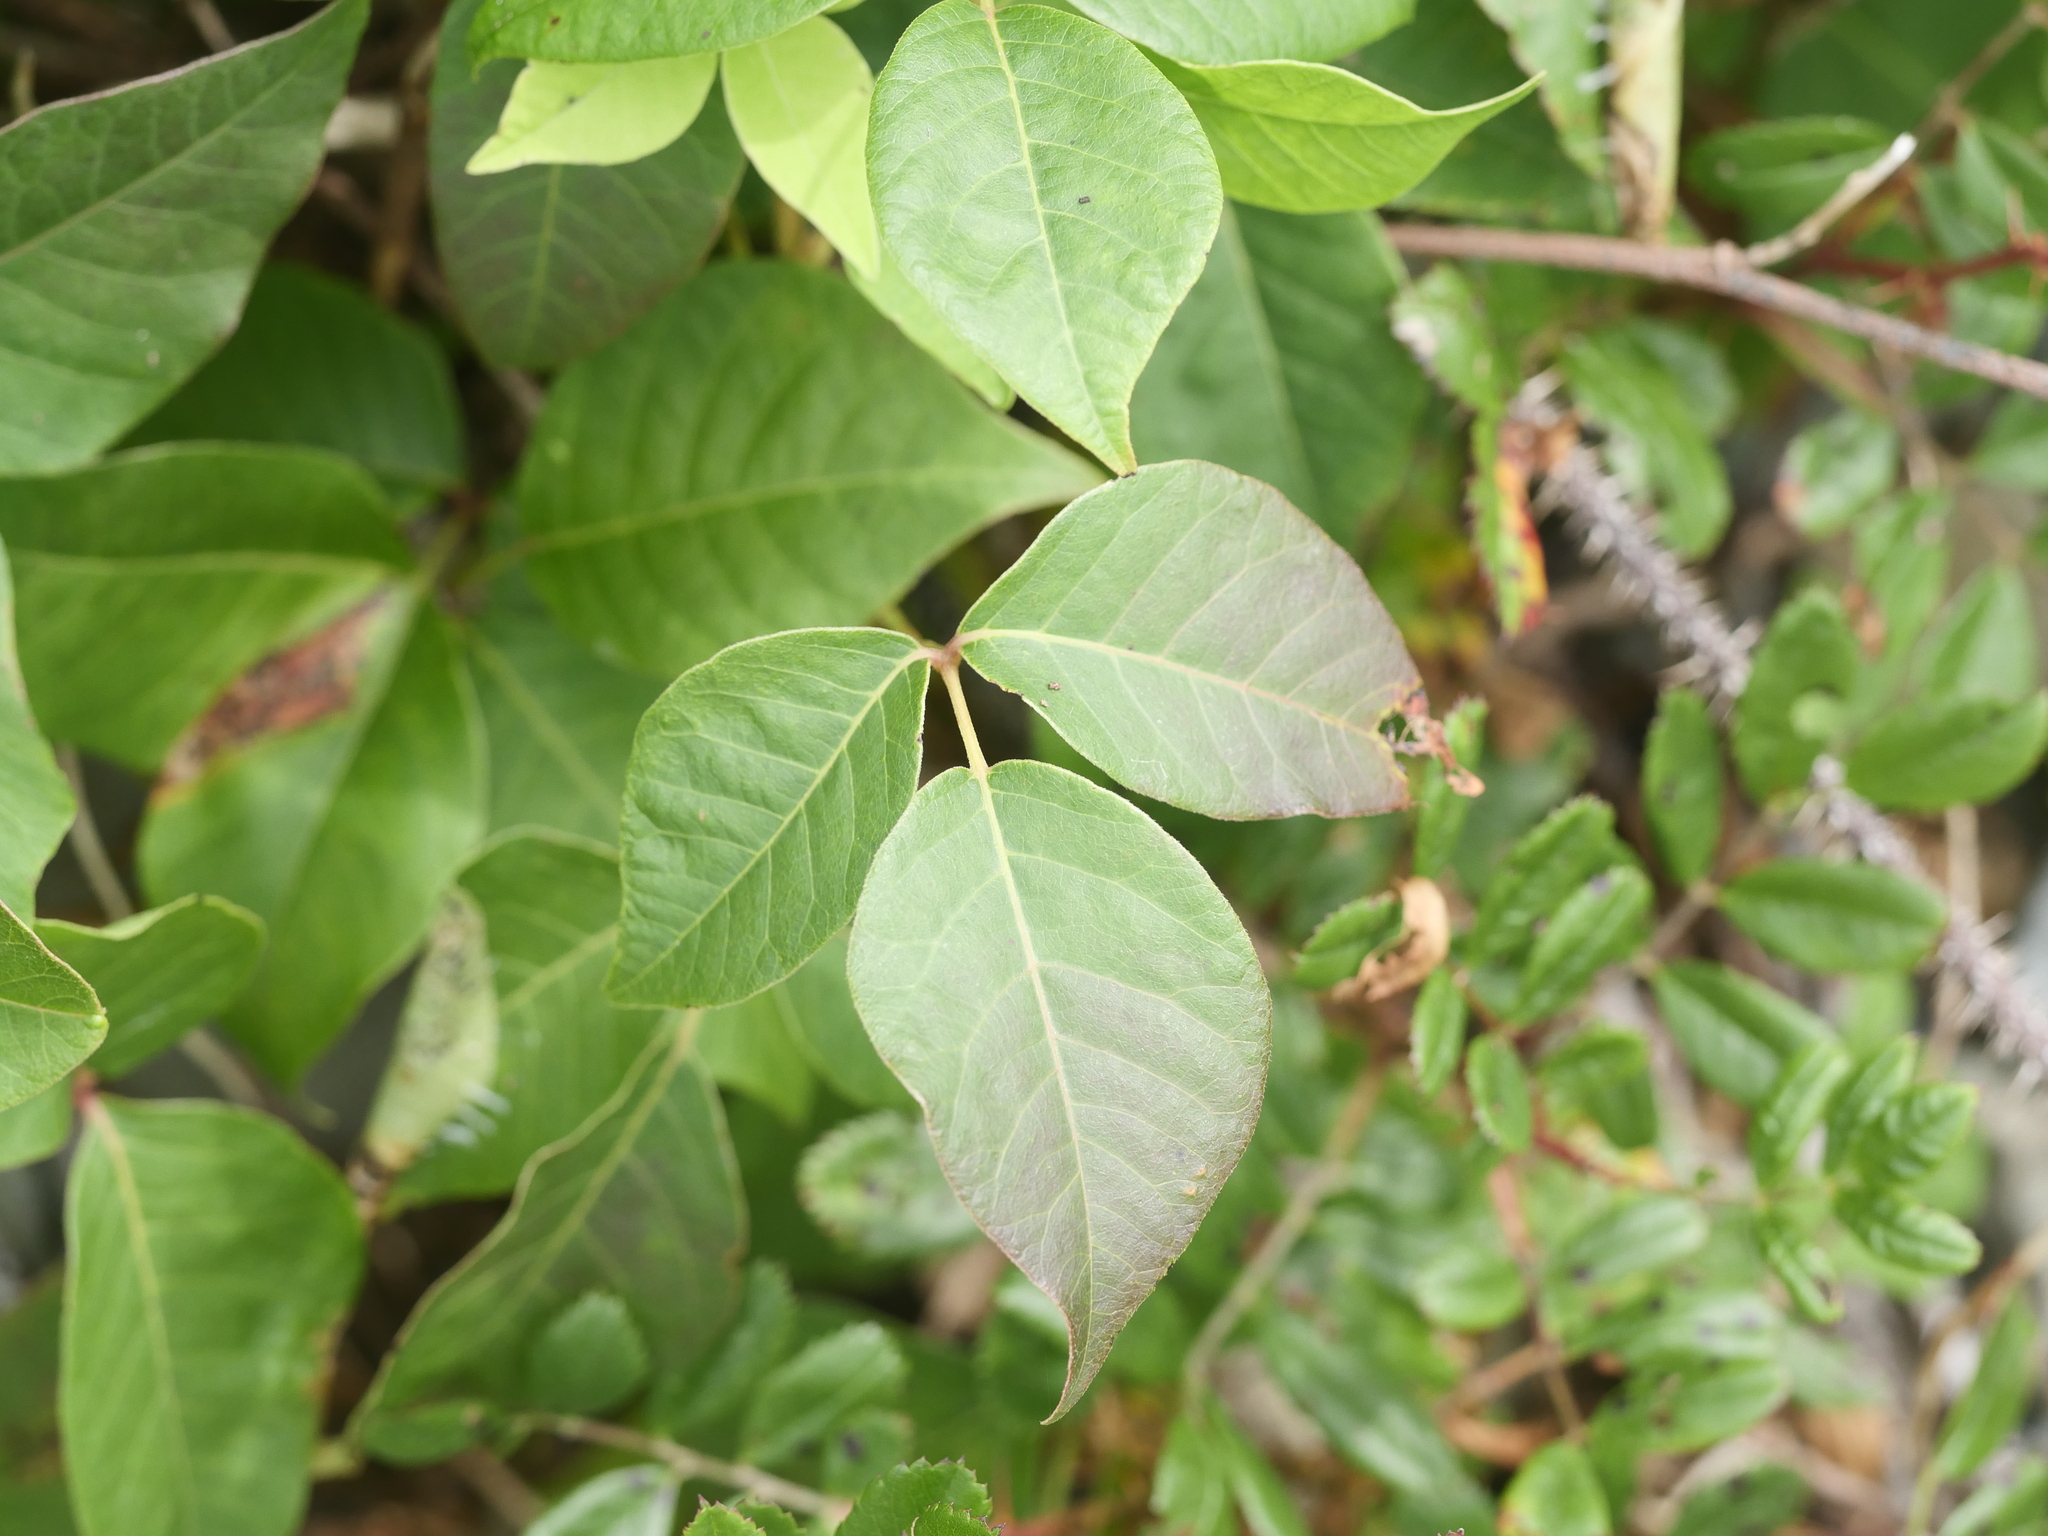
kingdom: Plantae
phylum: Tracheophyta
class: Magnoliopsida
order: Sapindales
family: Anacardiaceae
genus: Toxicodendron
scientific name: Toxicodendron radicans
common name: Poison ivy
